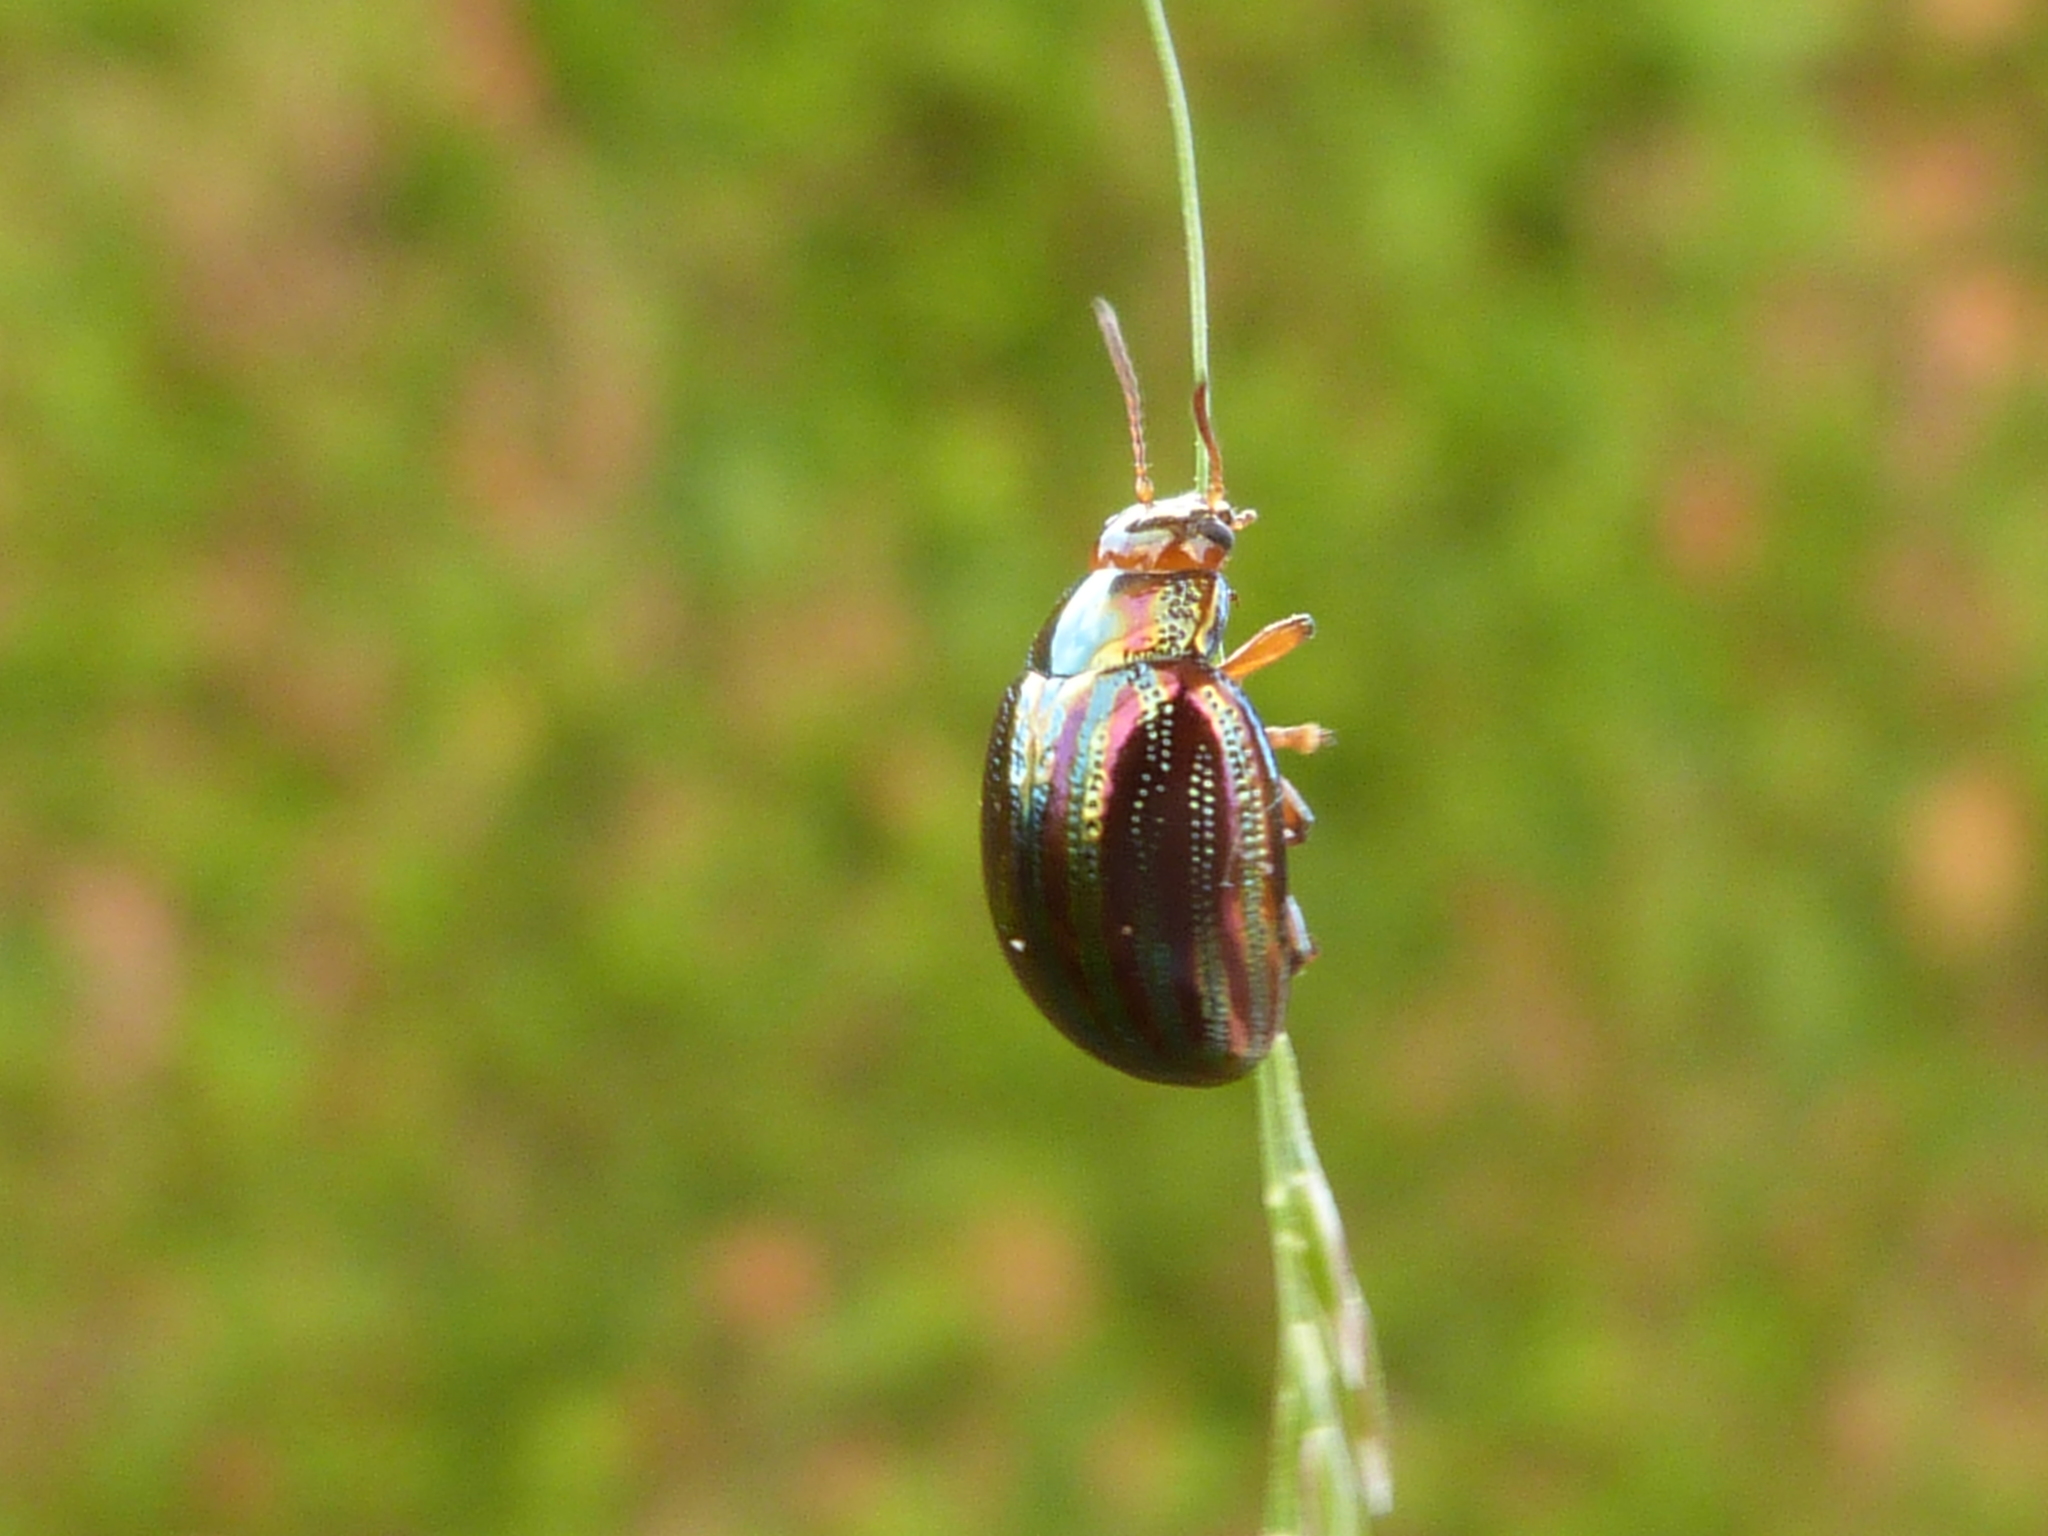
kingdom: Animalia
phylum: Arthropoda
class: Insecta
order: Coleoptera
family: Chrysomelidae
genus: Chrysolina
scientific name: Chrysolina americana
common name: Rosemary beetle
